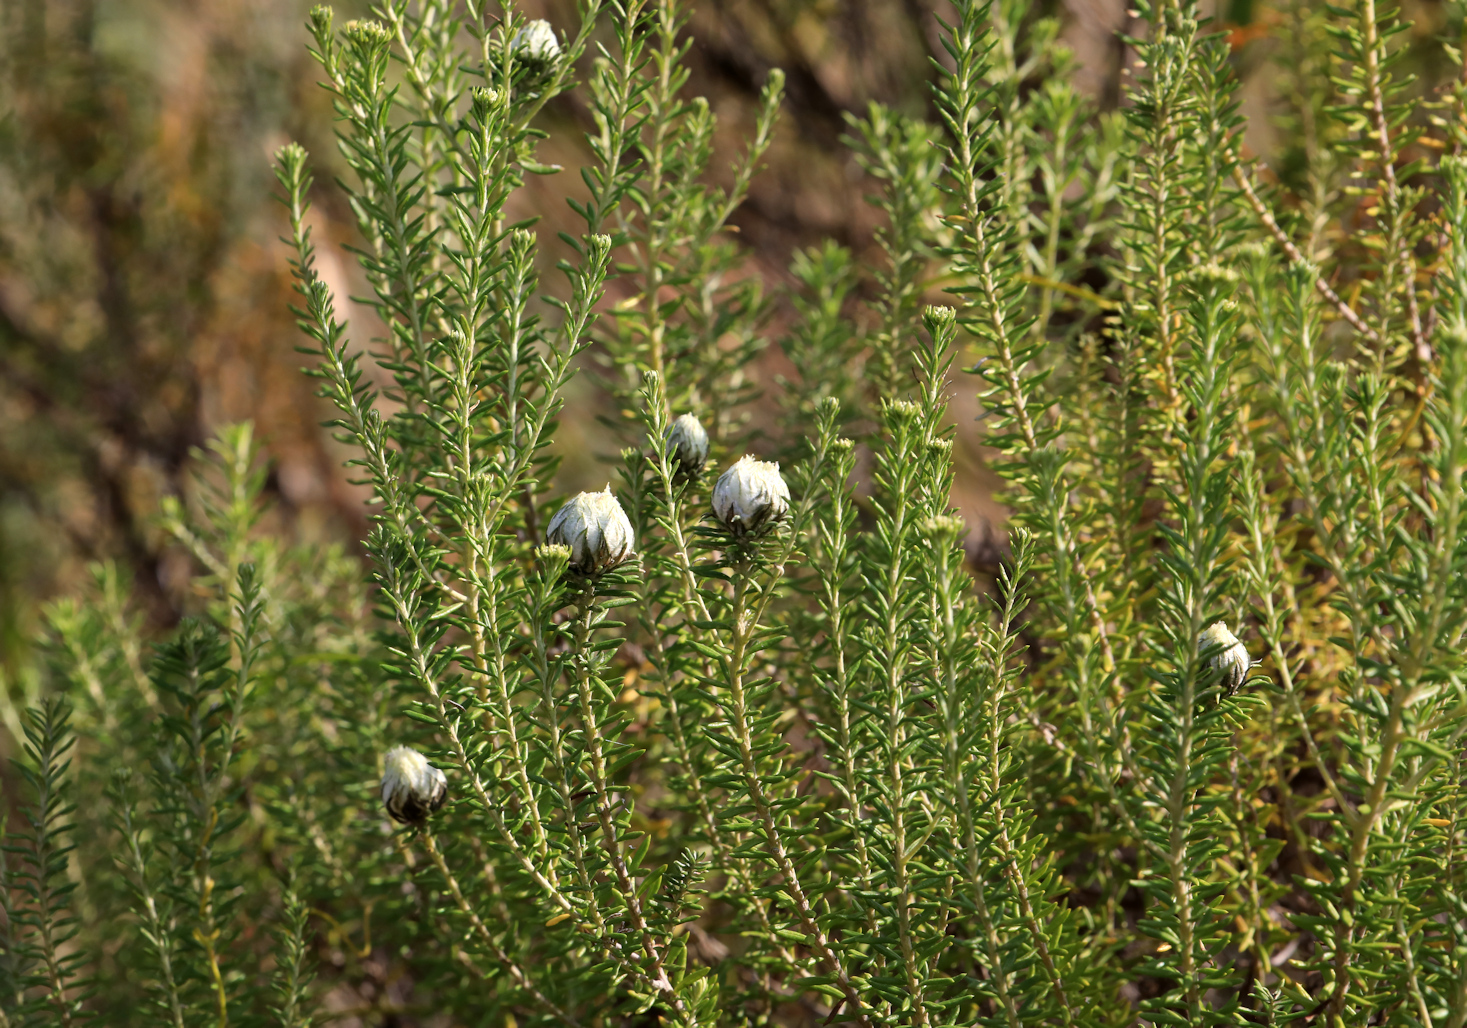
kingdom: Plantae
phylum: Tracheophyta
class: Magnoliopsida
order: Asterales
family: Asteraceae
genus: Helichrysum
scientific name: Helichrysum kraussii
